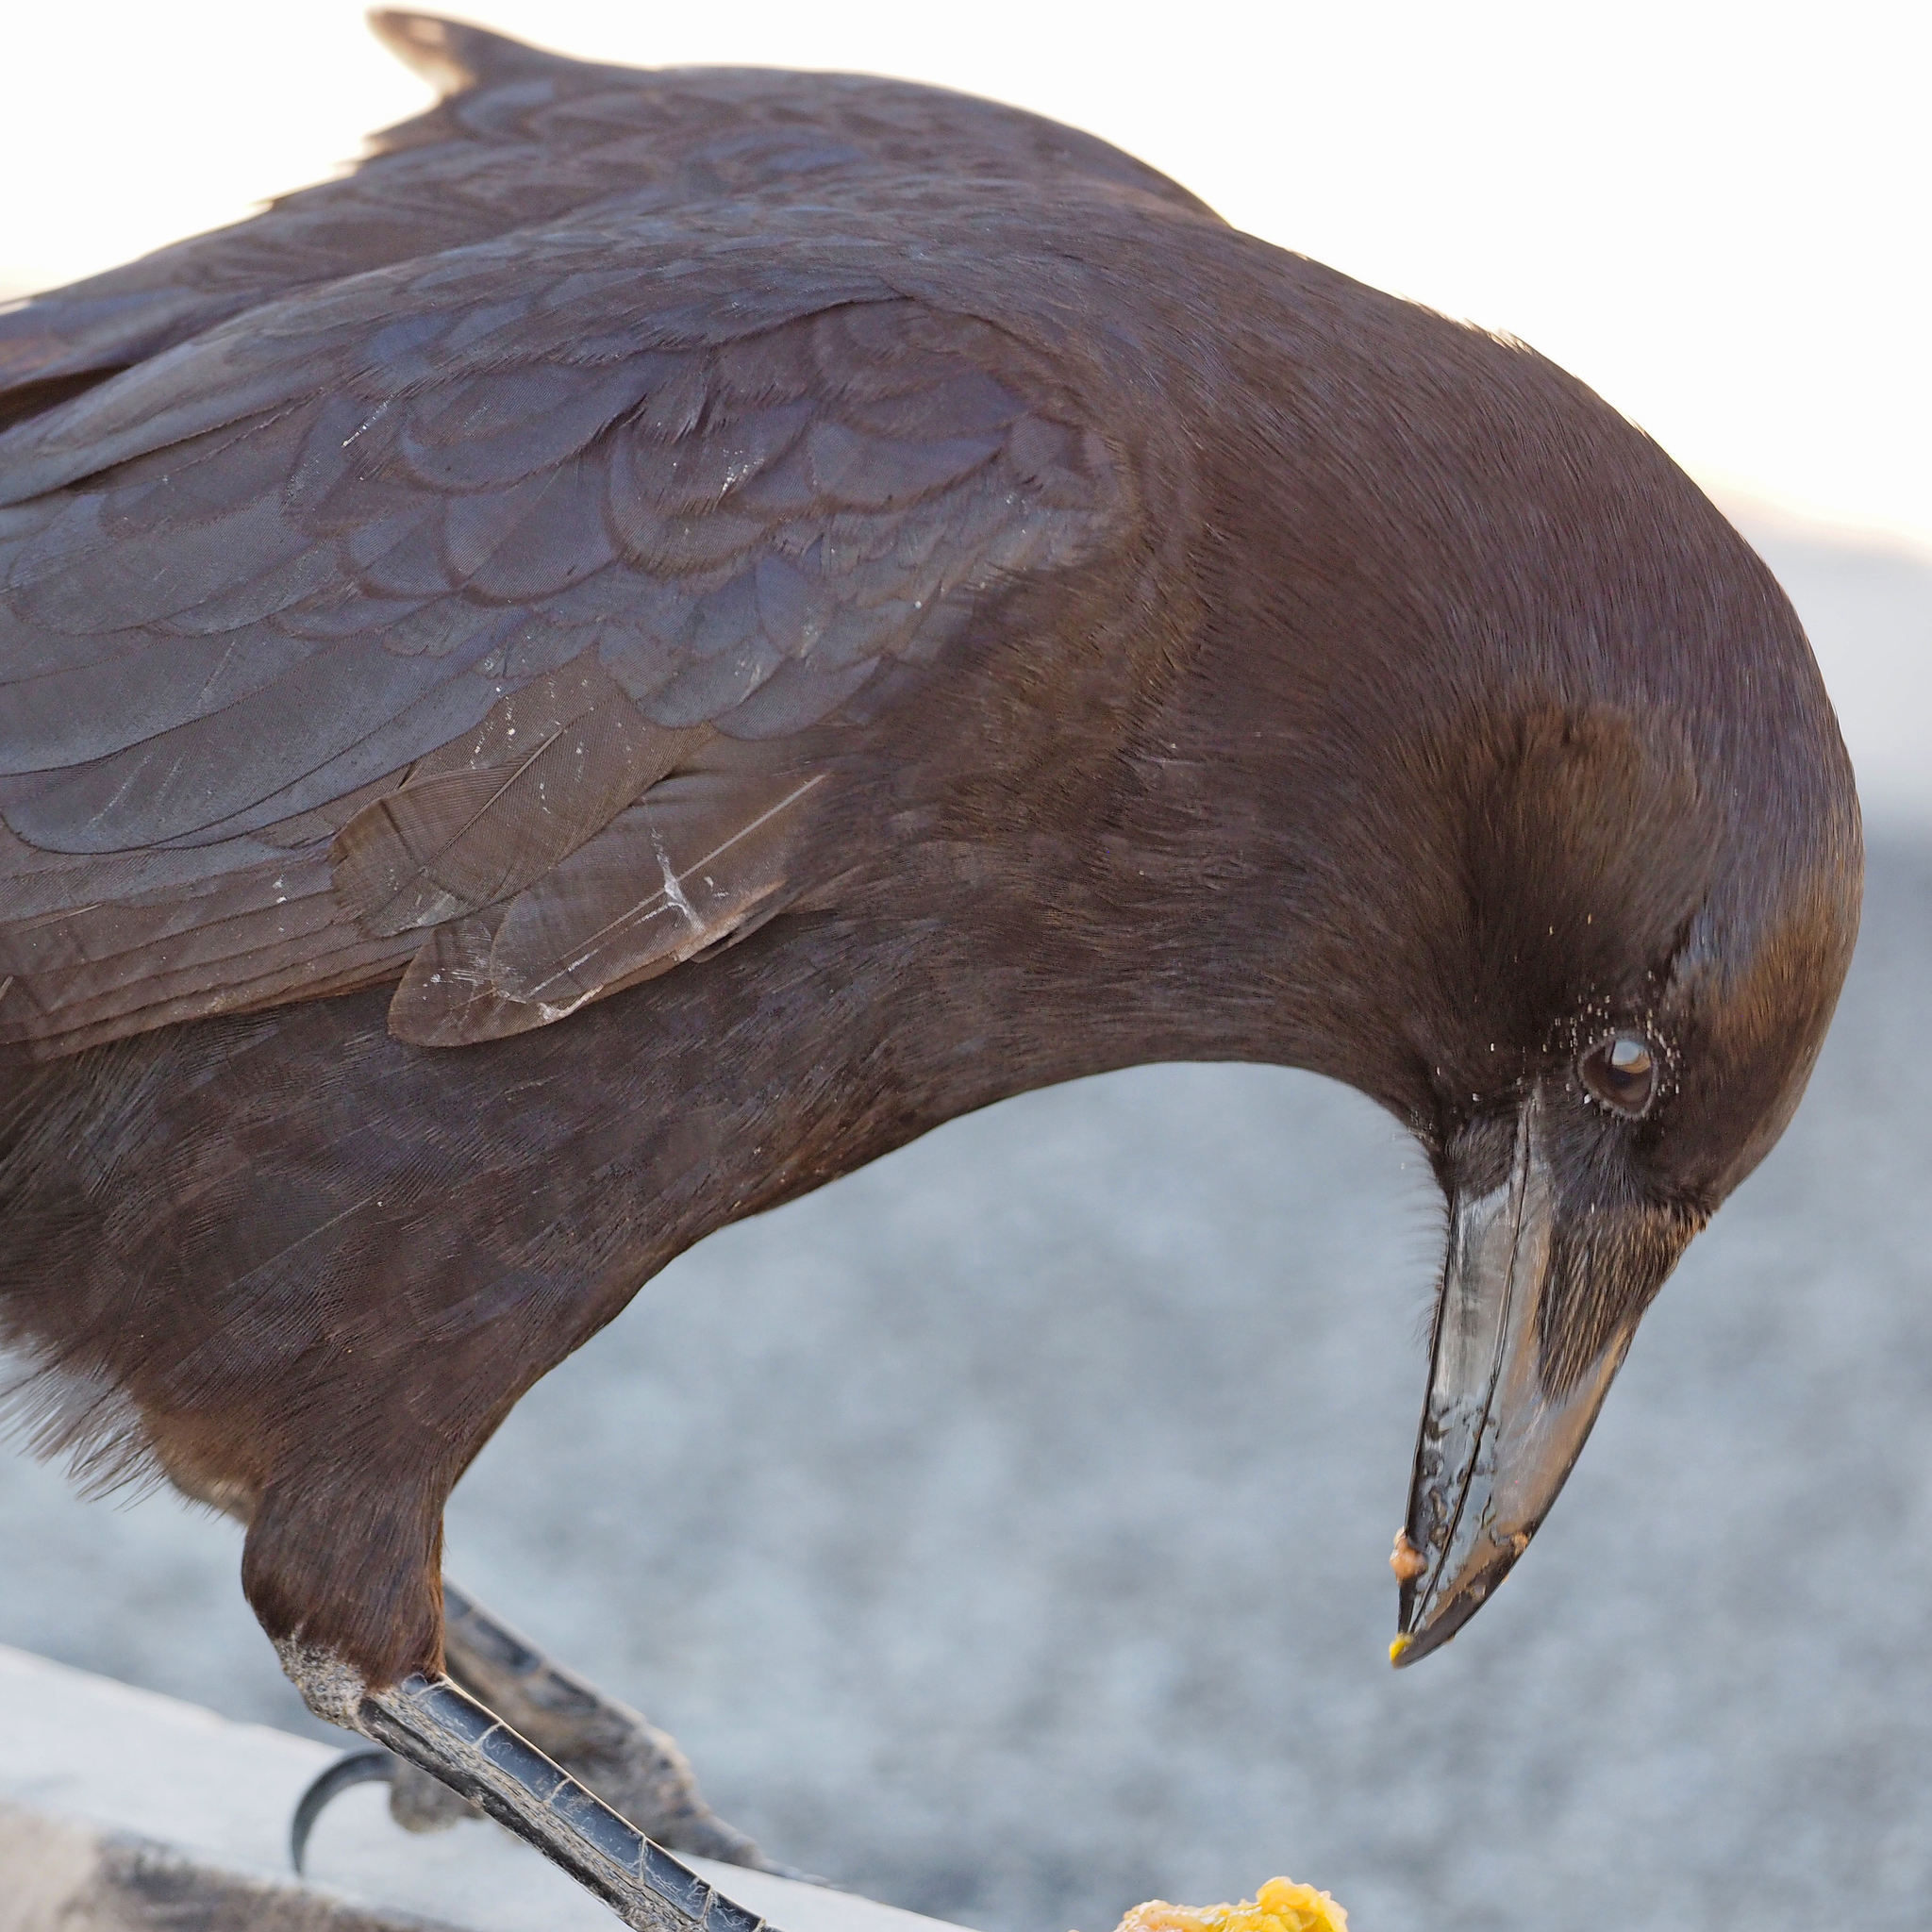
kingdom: Animalia
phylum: Chordata
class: Aves
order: Passeriformes
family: Corvidae
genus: Corvus
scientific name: Corvus brachyrhynchos
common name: American crow
